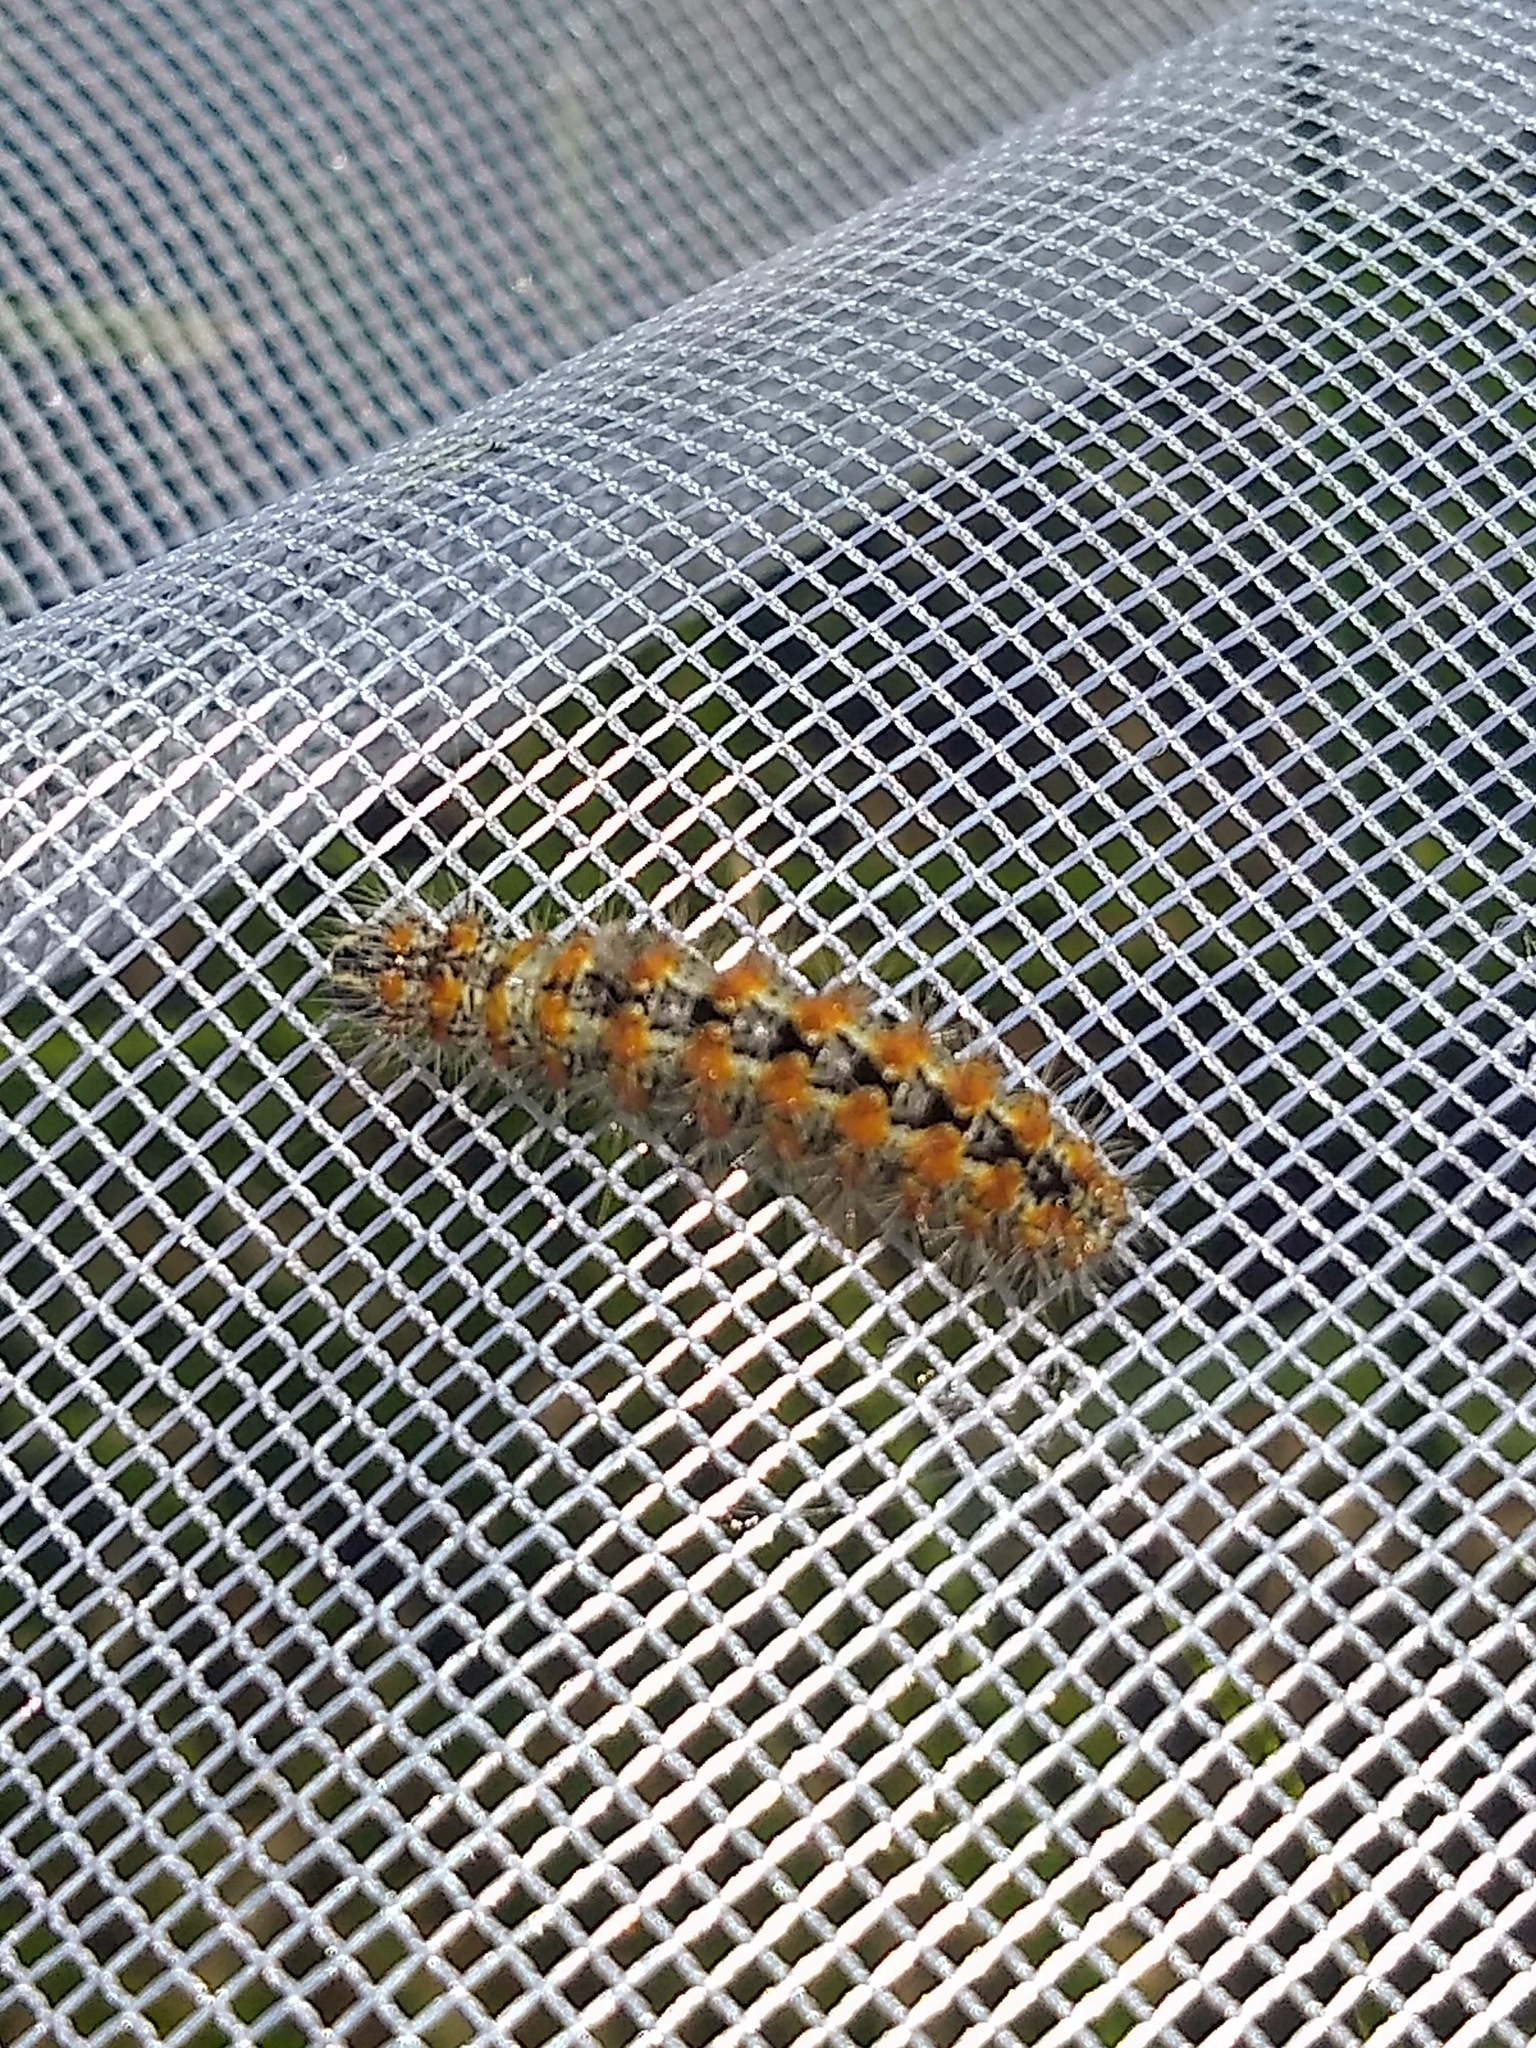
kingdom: Animalia
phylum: Arthropoda
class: Insecta
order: Lepidoptera
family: Noctuidae
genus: Acronicta
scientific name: Acronicta insularis
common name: Henry's marsh moth
